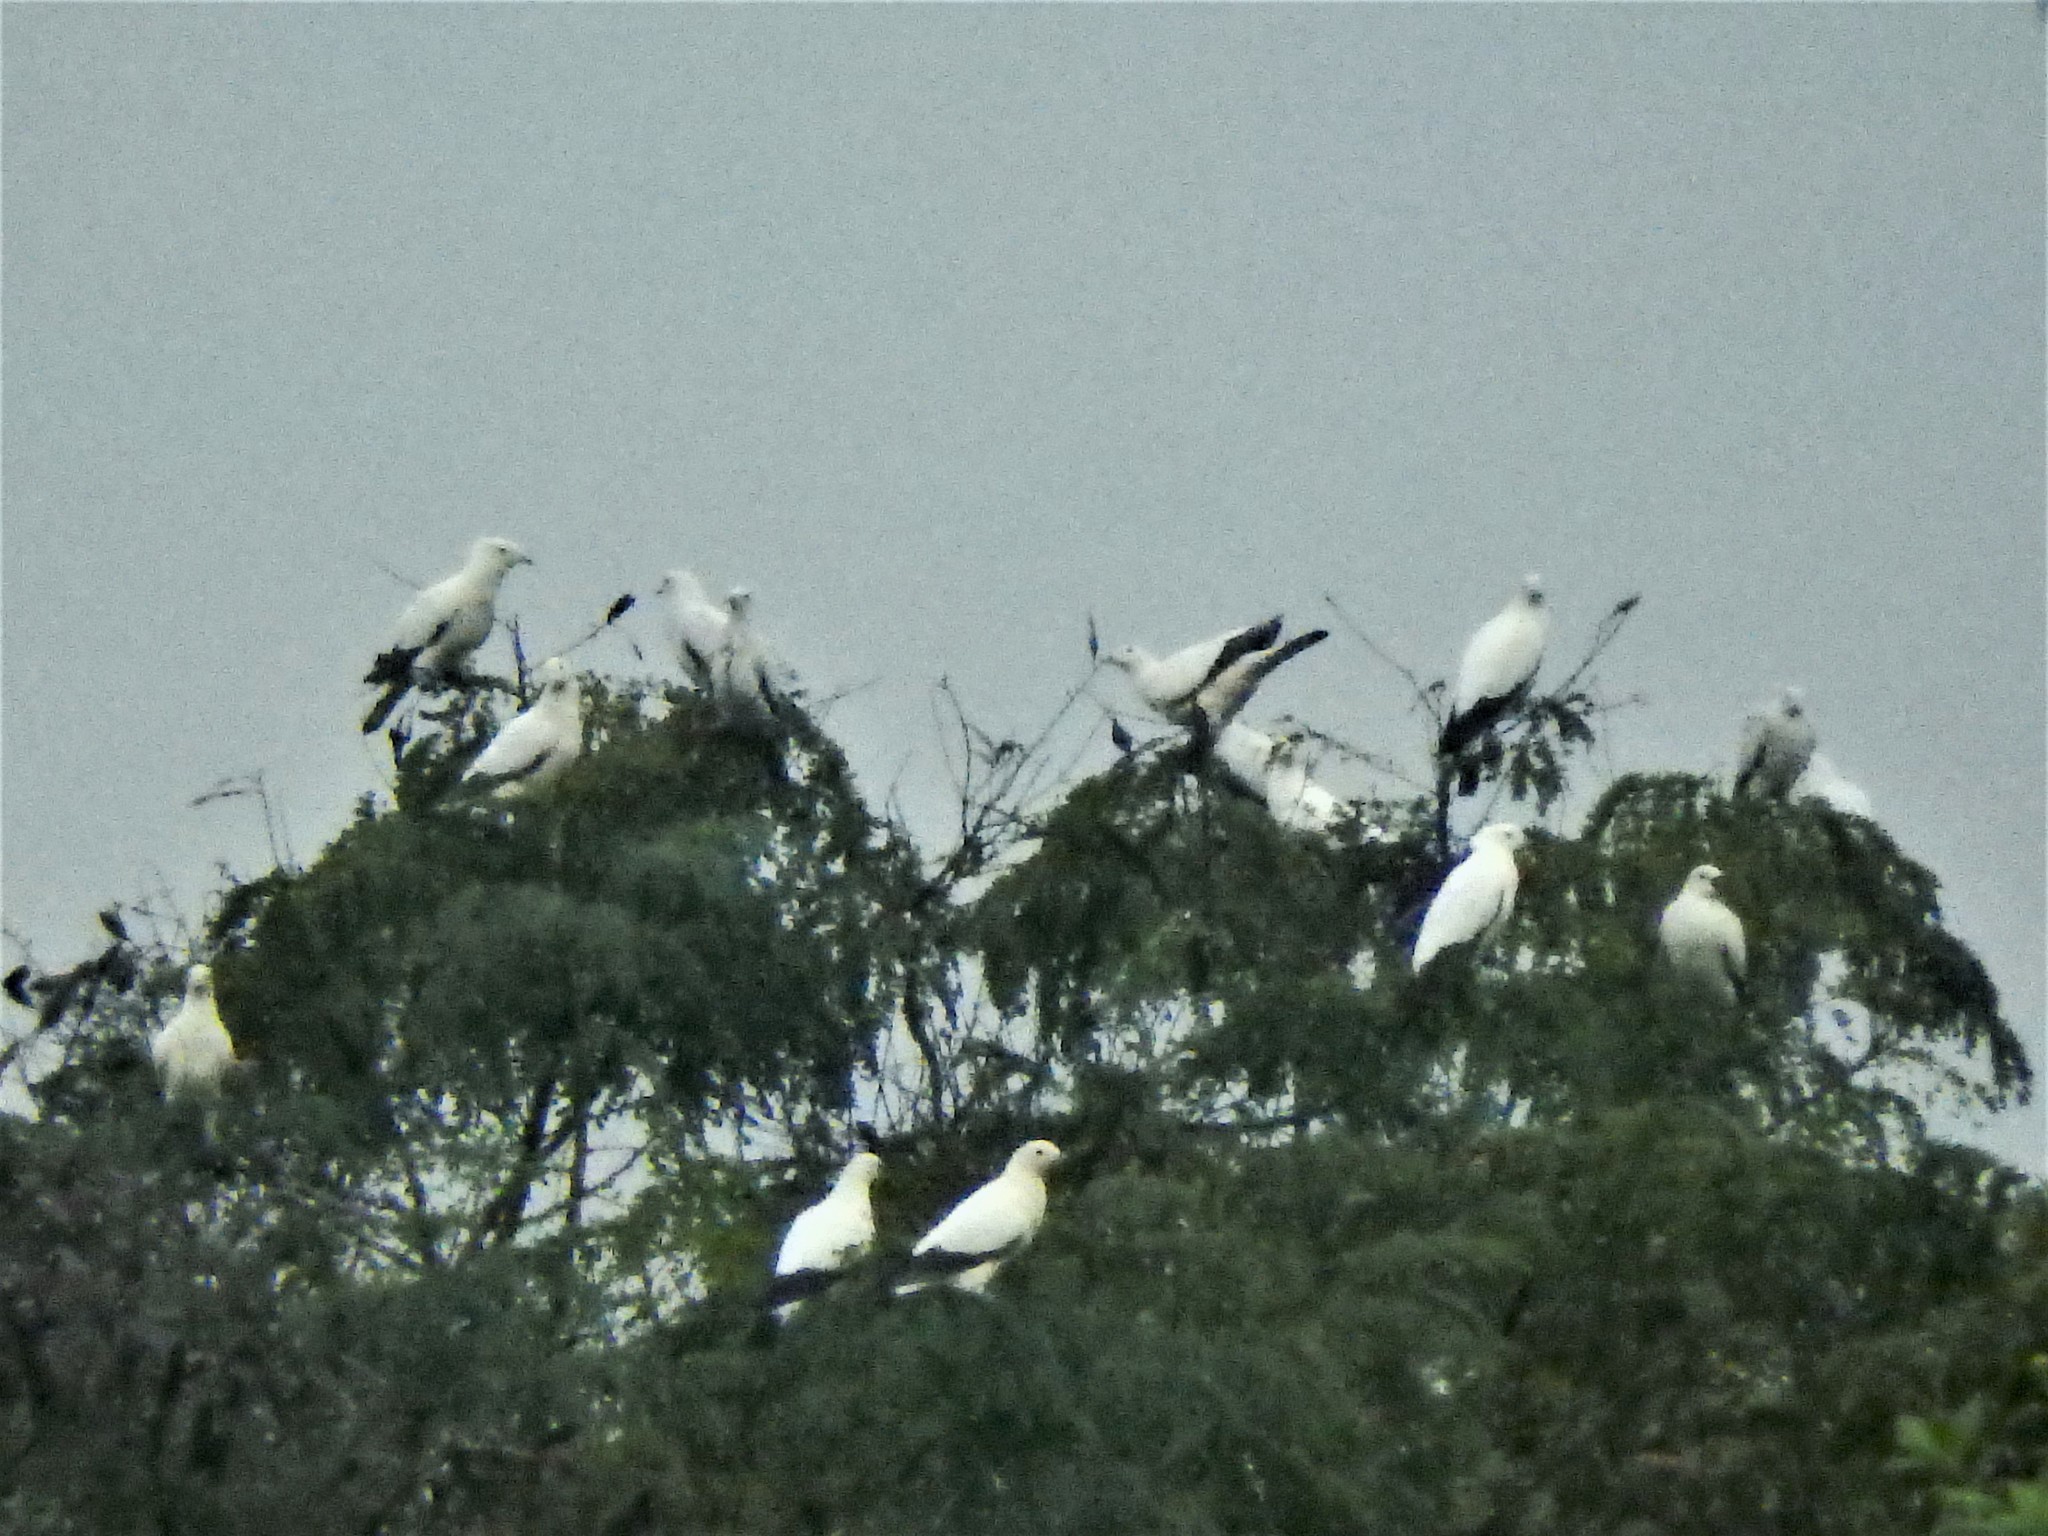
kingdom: Animalia
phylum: Chordata
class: Aves
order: Columbiformes
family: Columbidae
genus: Ducula
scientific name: Ducula bicolor
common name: Pied imperial pigeon
